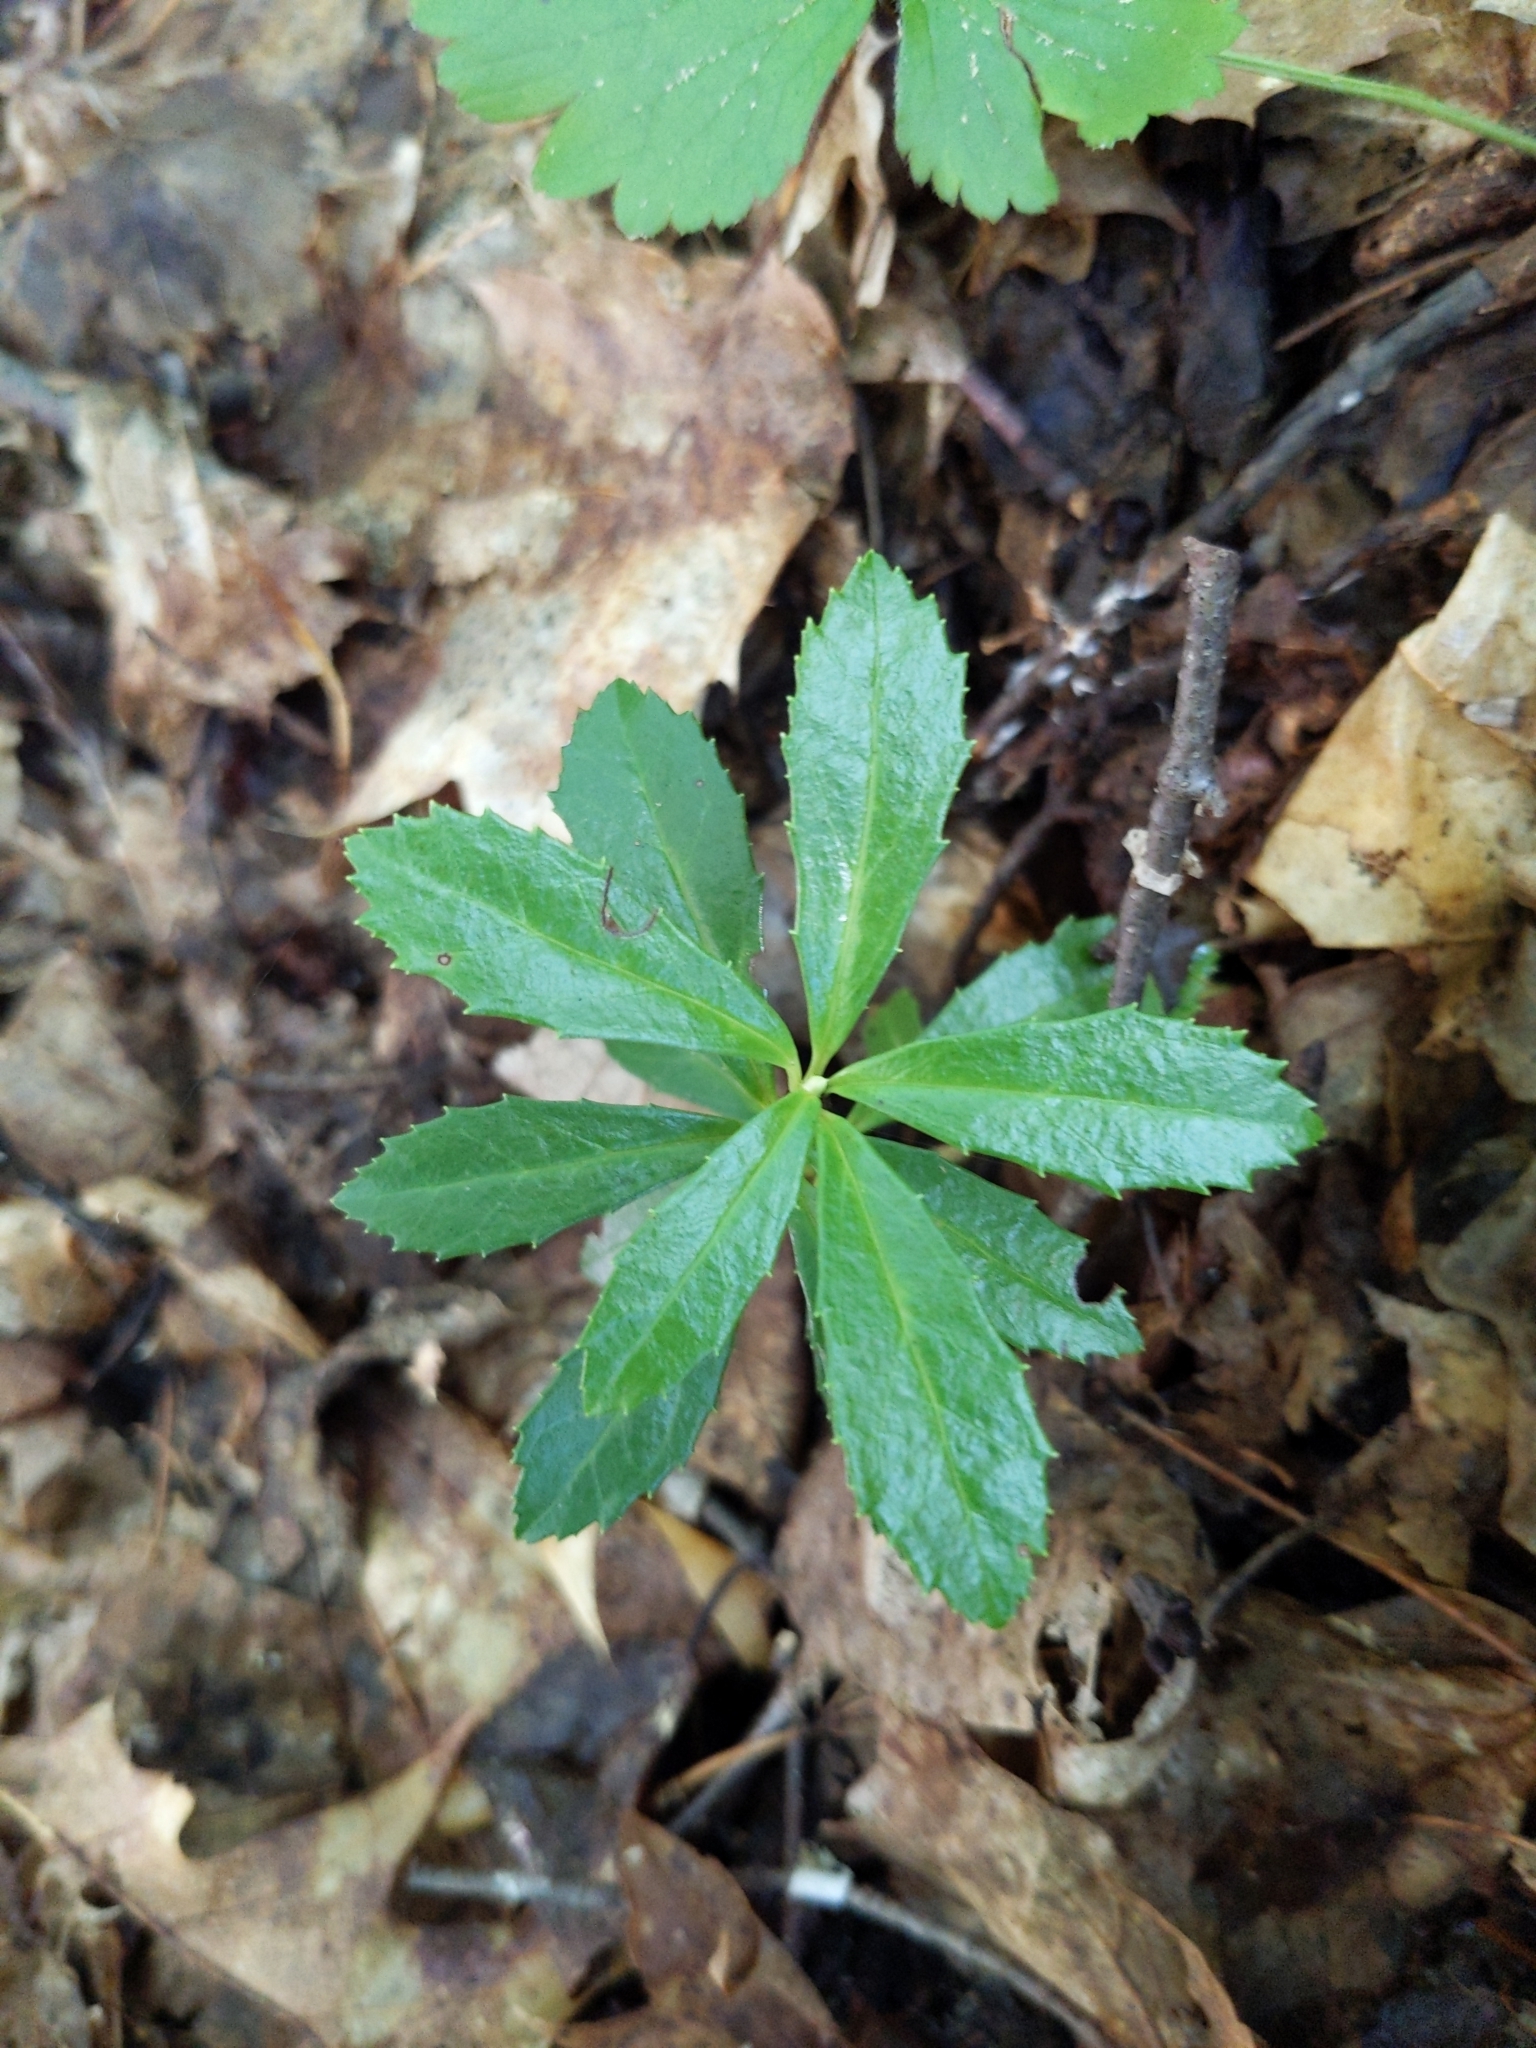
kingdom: Plantae
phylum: Tracheophyta
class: Magnoliopsida
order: Ericales
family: Ericaceae
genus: Chimaphila
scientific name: Chimaphila umbellata
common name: Pipsissewa
